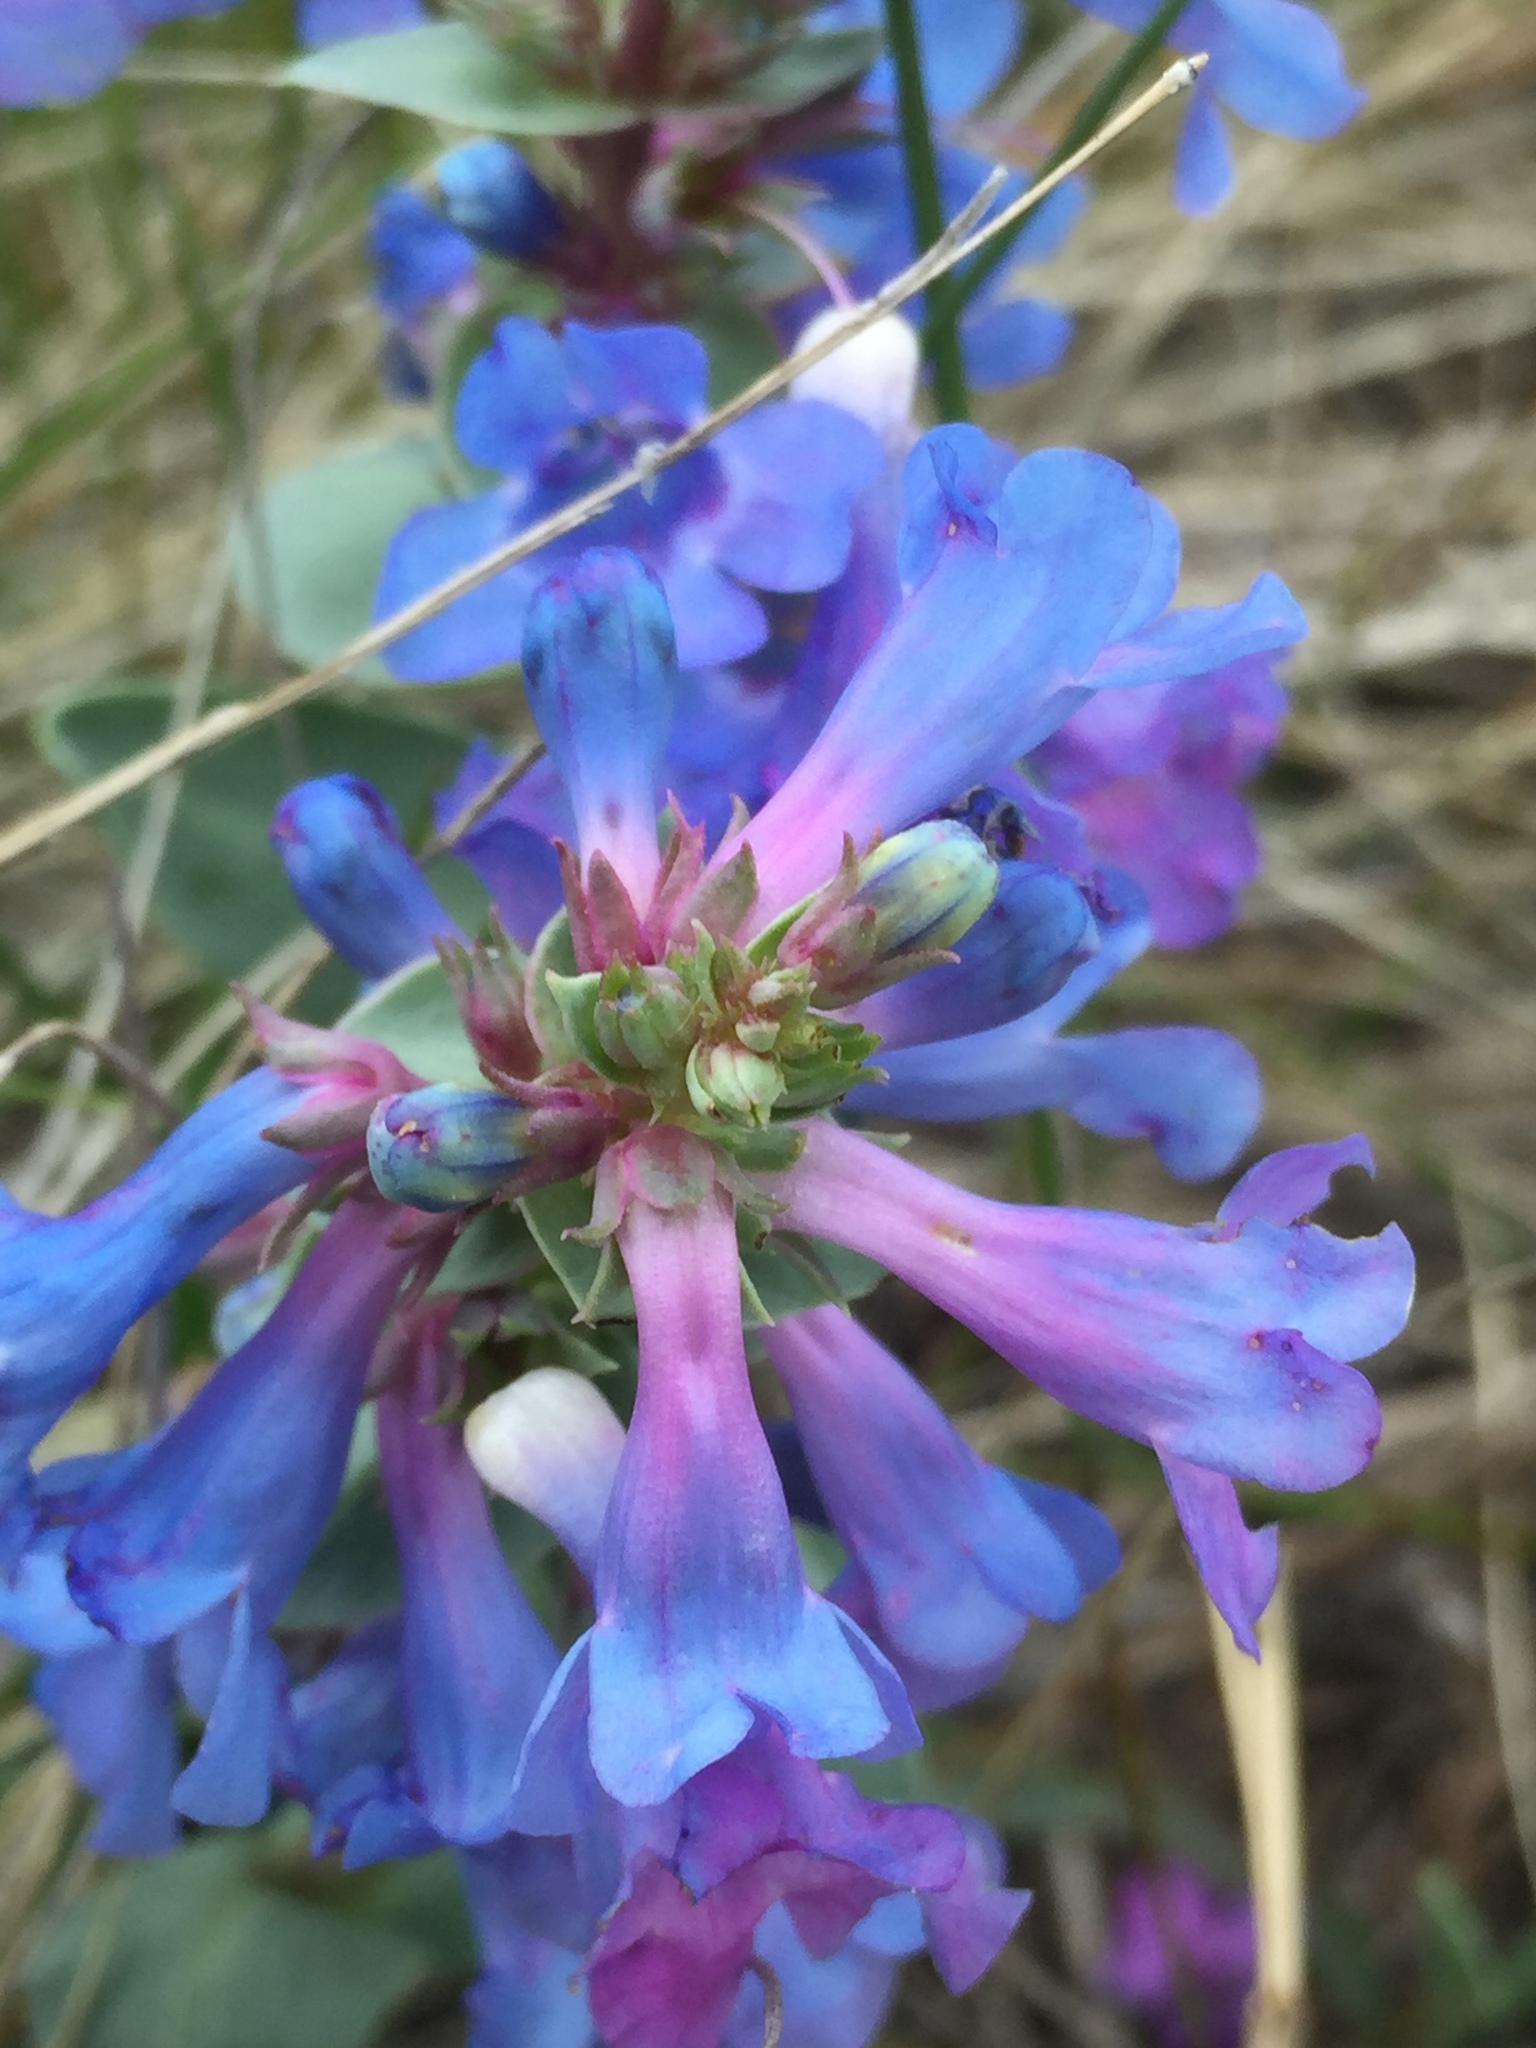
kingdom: Plantae
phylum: Tracheophyta
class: Magnoliopsida
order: Lamiales
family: Plantaginaceae
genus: Penstemon
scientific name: Penstemon nitidus
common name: Shining penstemon
